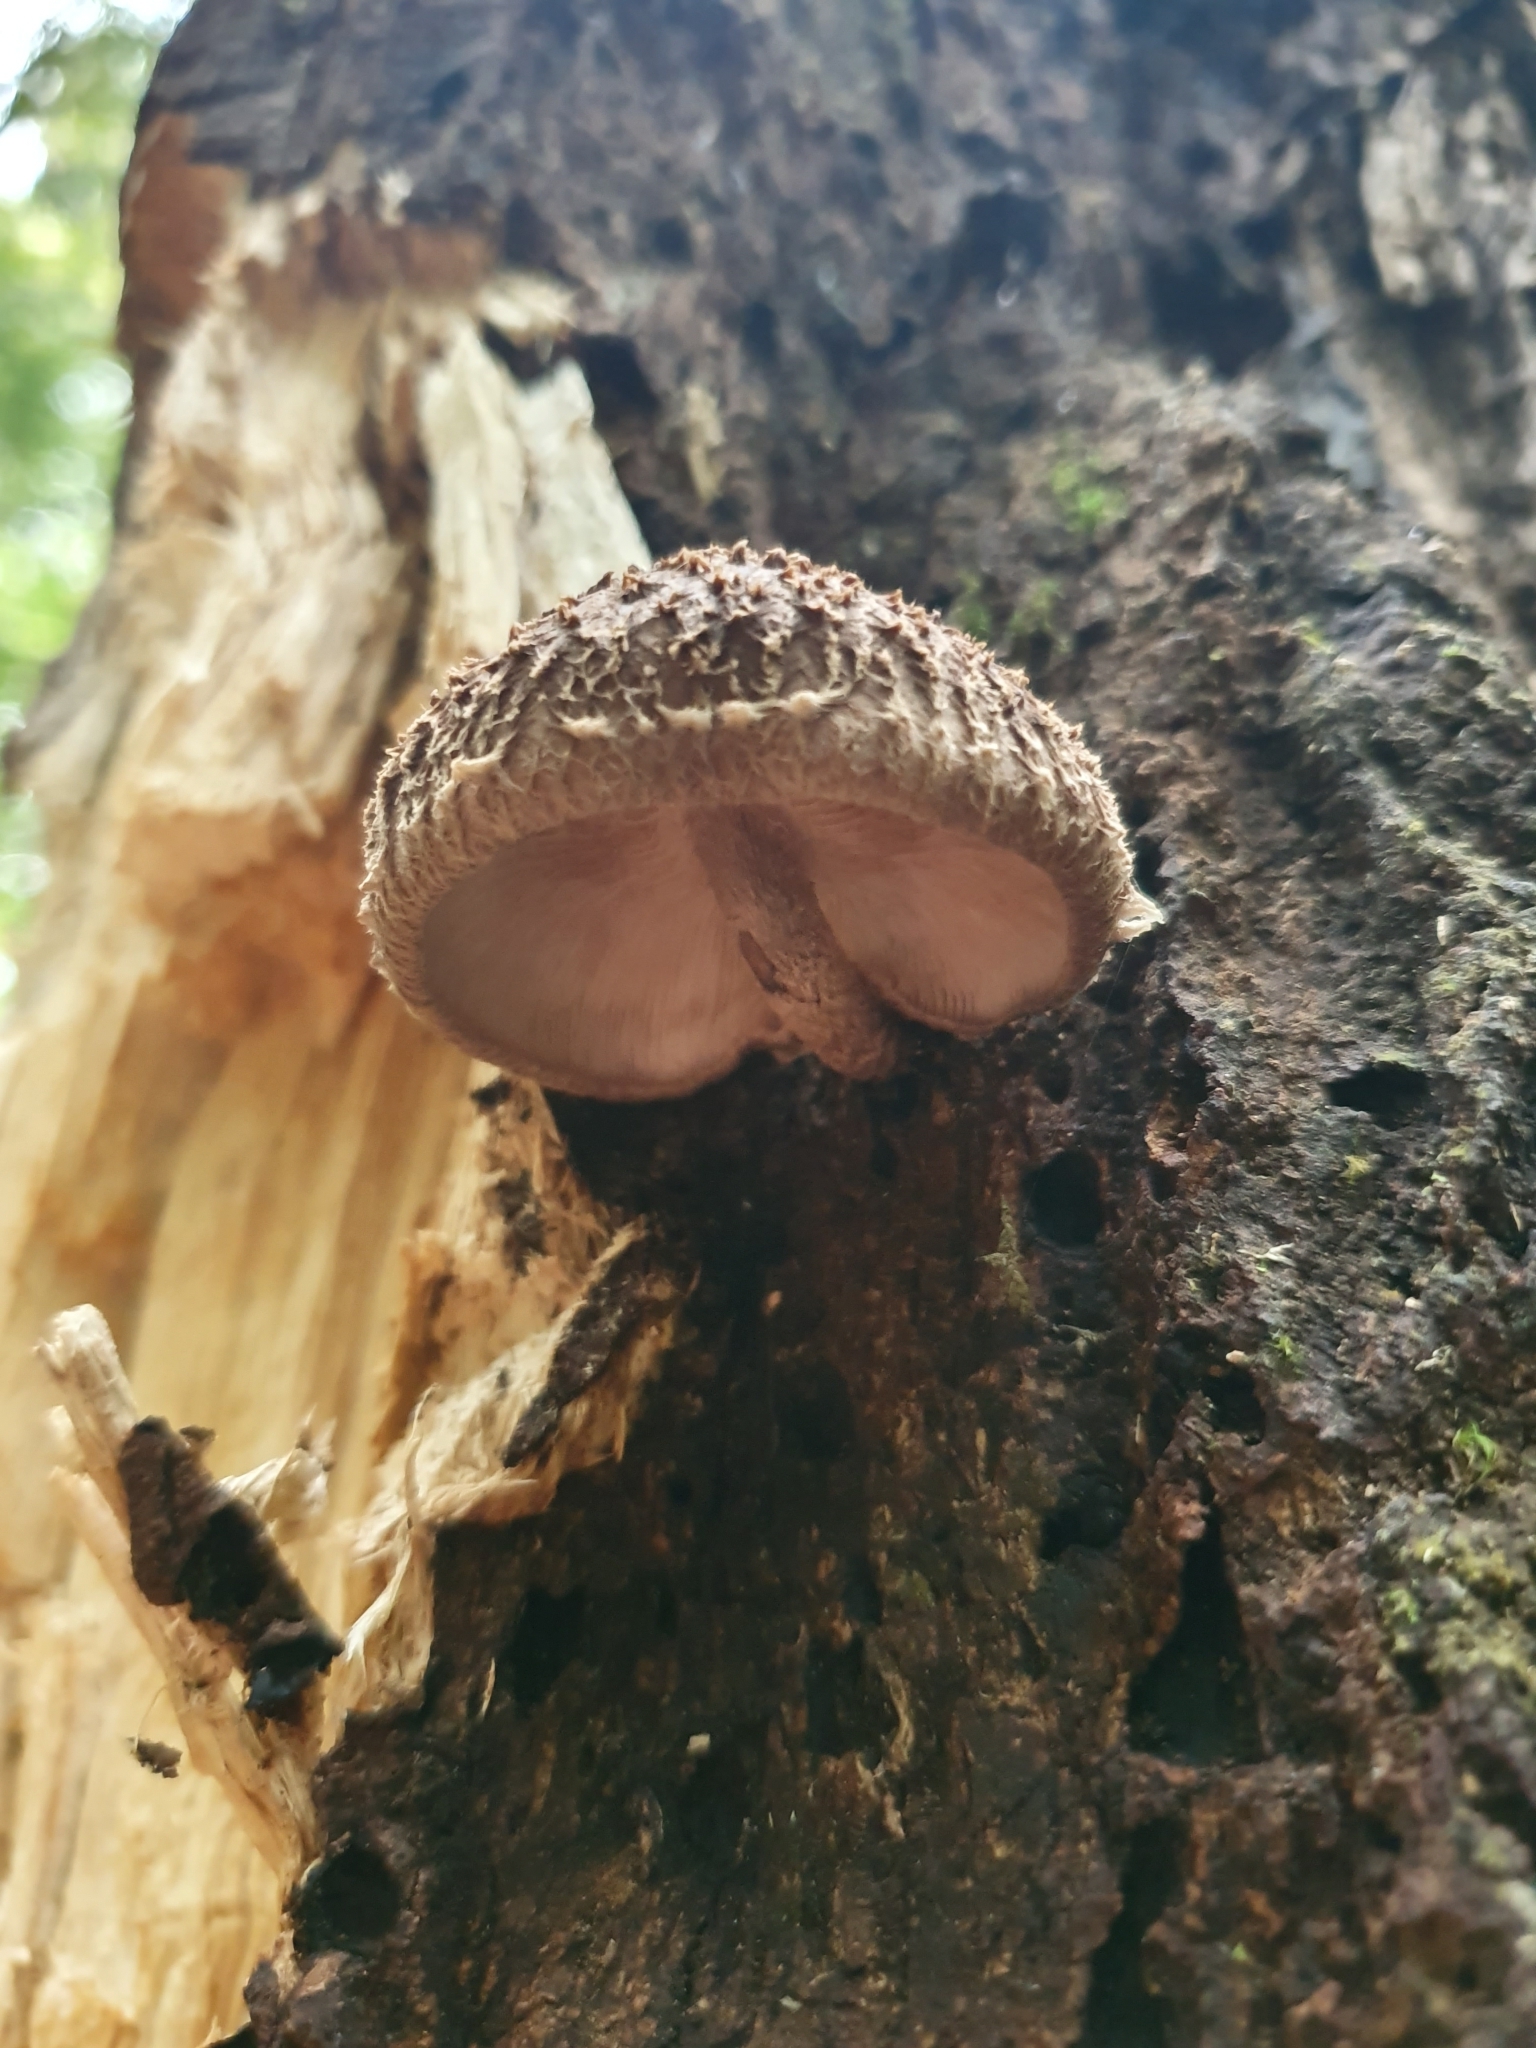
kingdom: Fungi
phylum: Basidiomycota
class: Agaricomycetes
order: Agaricales
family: Omphalotaceae
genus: Lentinula
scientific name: Lentinula novae-zelandiae
